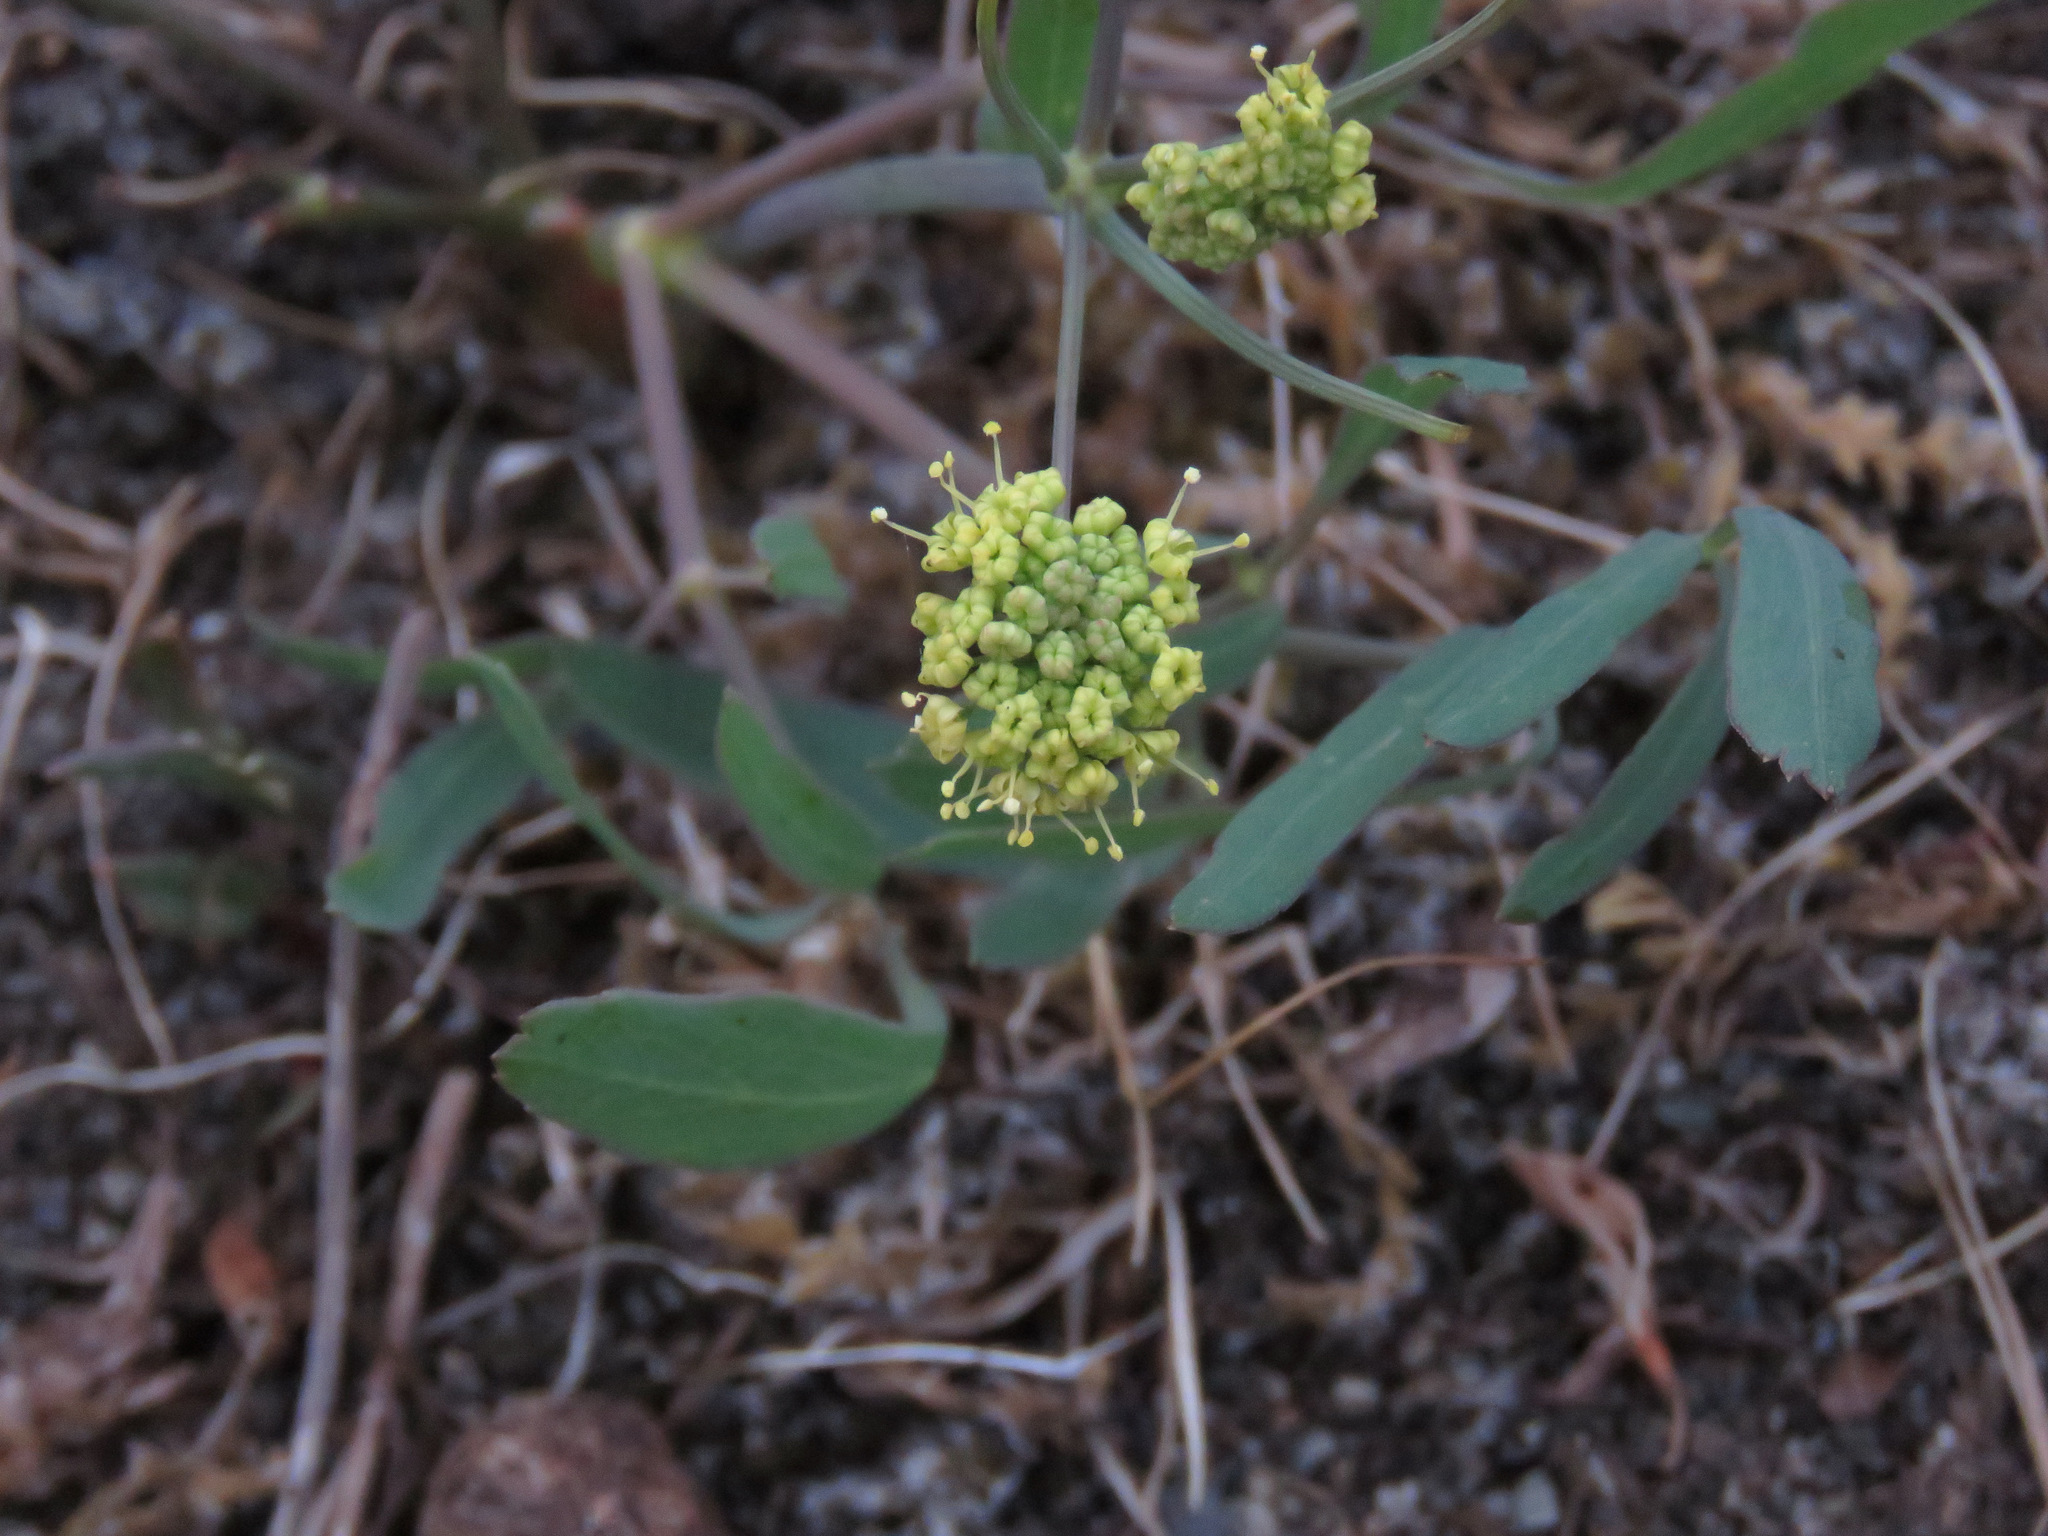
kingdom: Plantae
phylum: Tracheophyta
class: Magnoliopsida
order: Apiales
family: Apiaceae
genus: Lomatium
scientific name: Lomatium nudicaule
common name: Pestle lomatium
